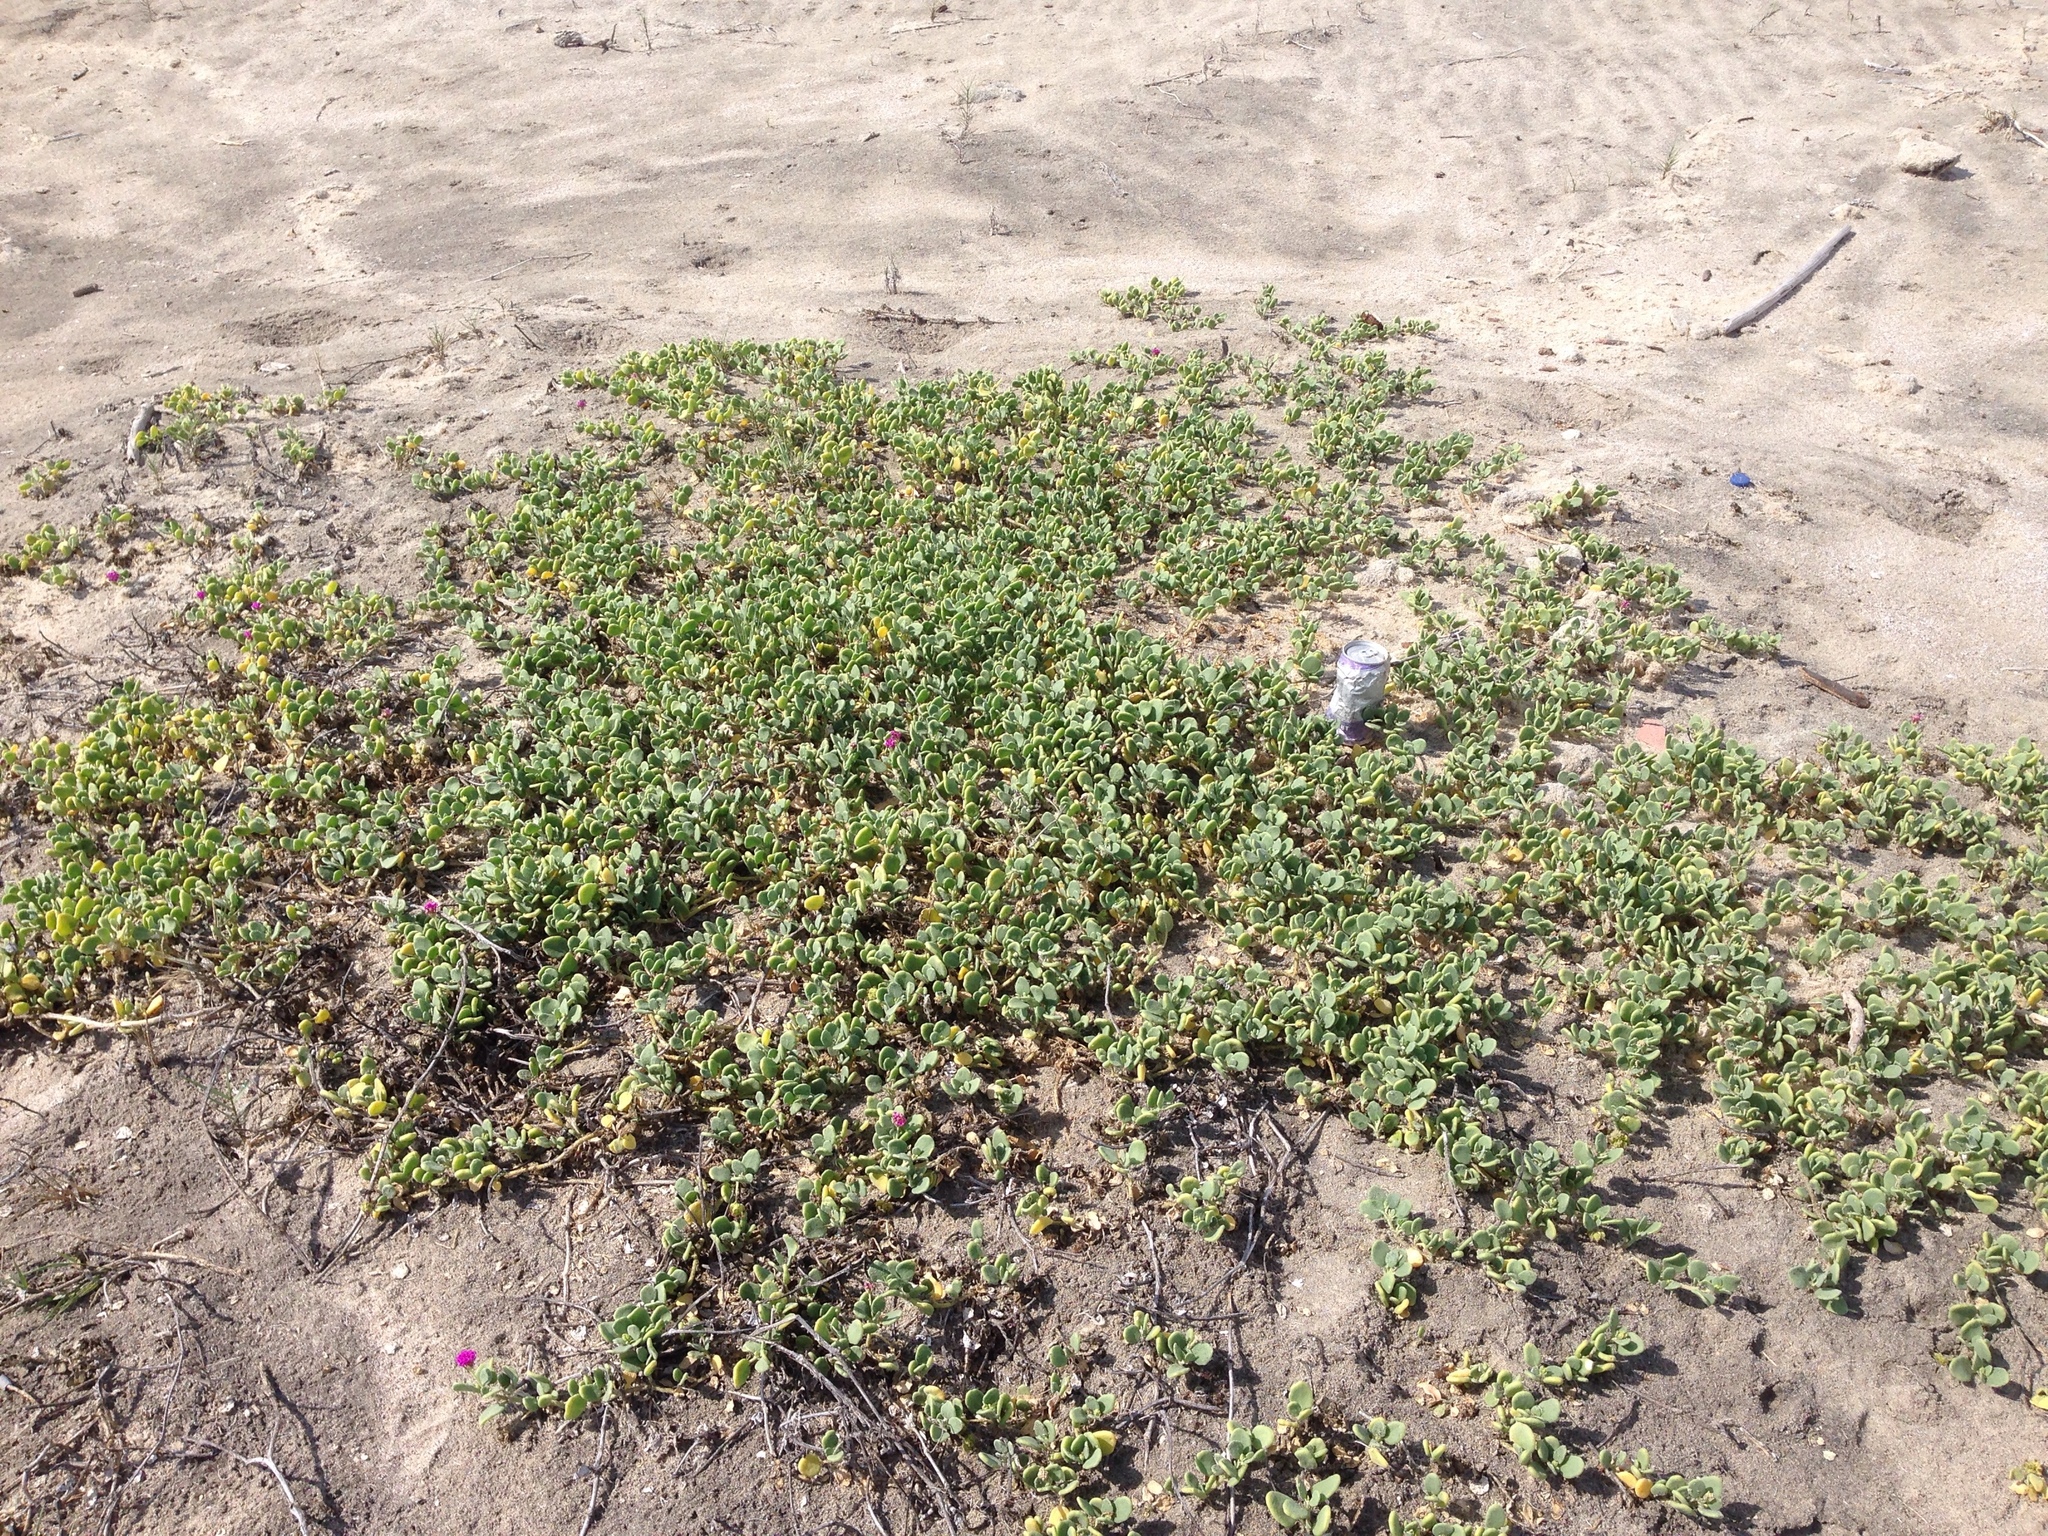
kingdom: Plantae
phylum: Tracheophyta
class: Magnoliopsida
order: Caryophyllales
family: Nyctaginaceae
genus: Abronia
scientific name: Abronia maritima
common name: Red sand-verbena
